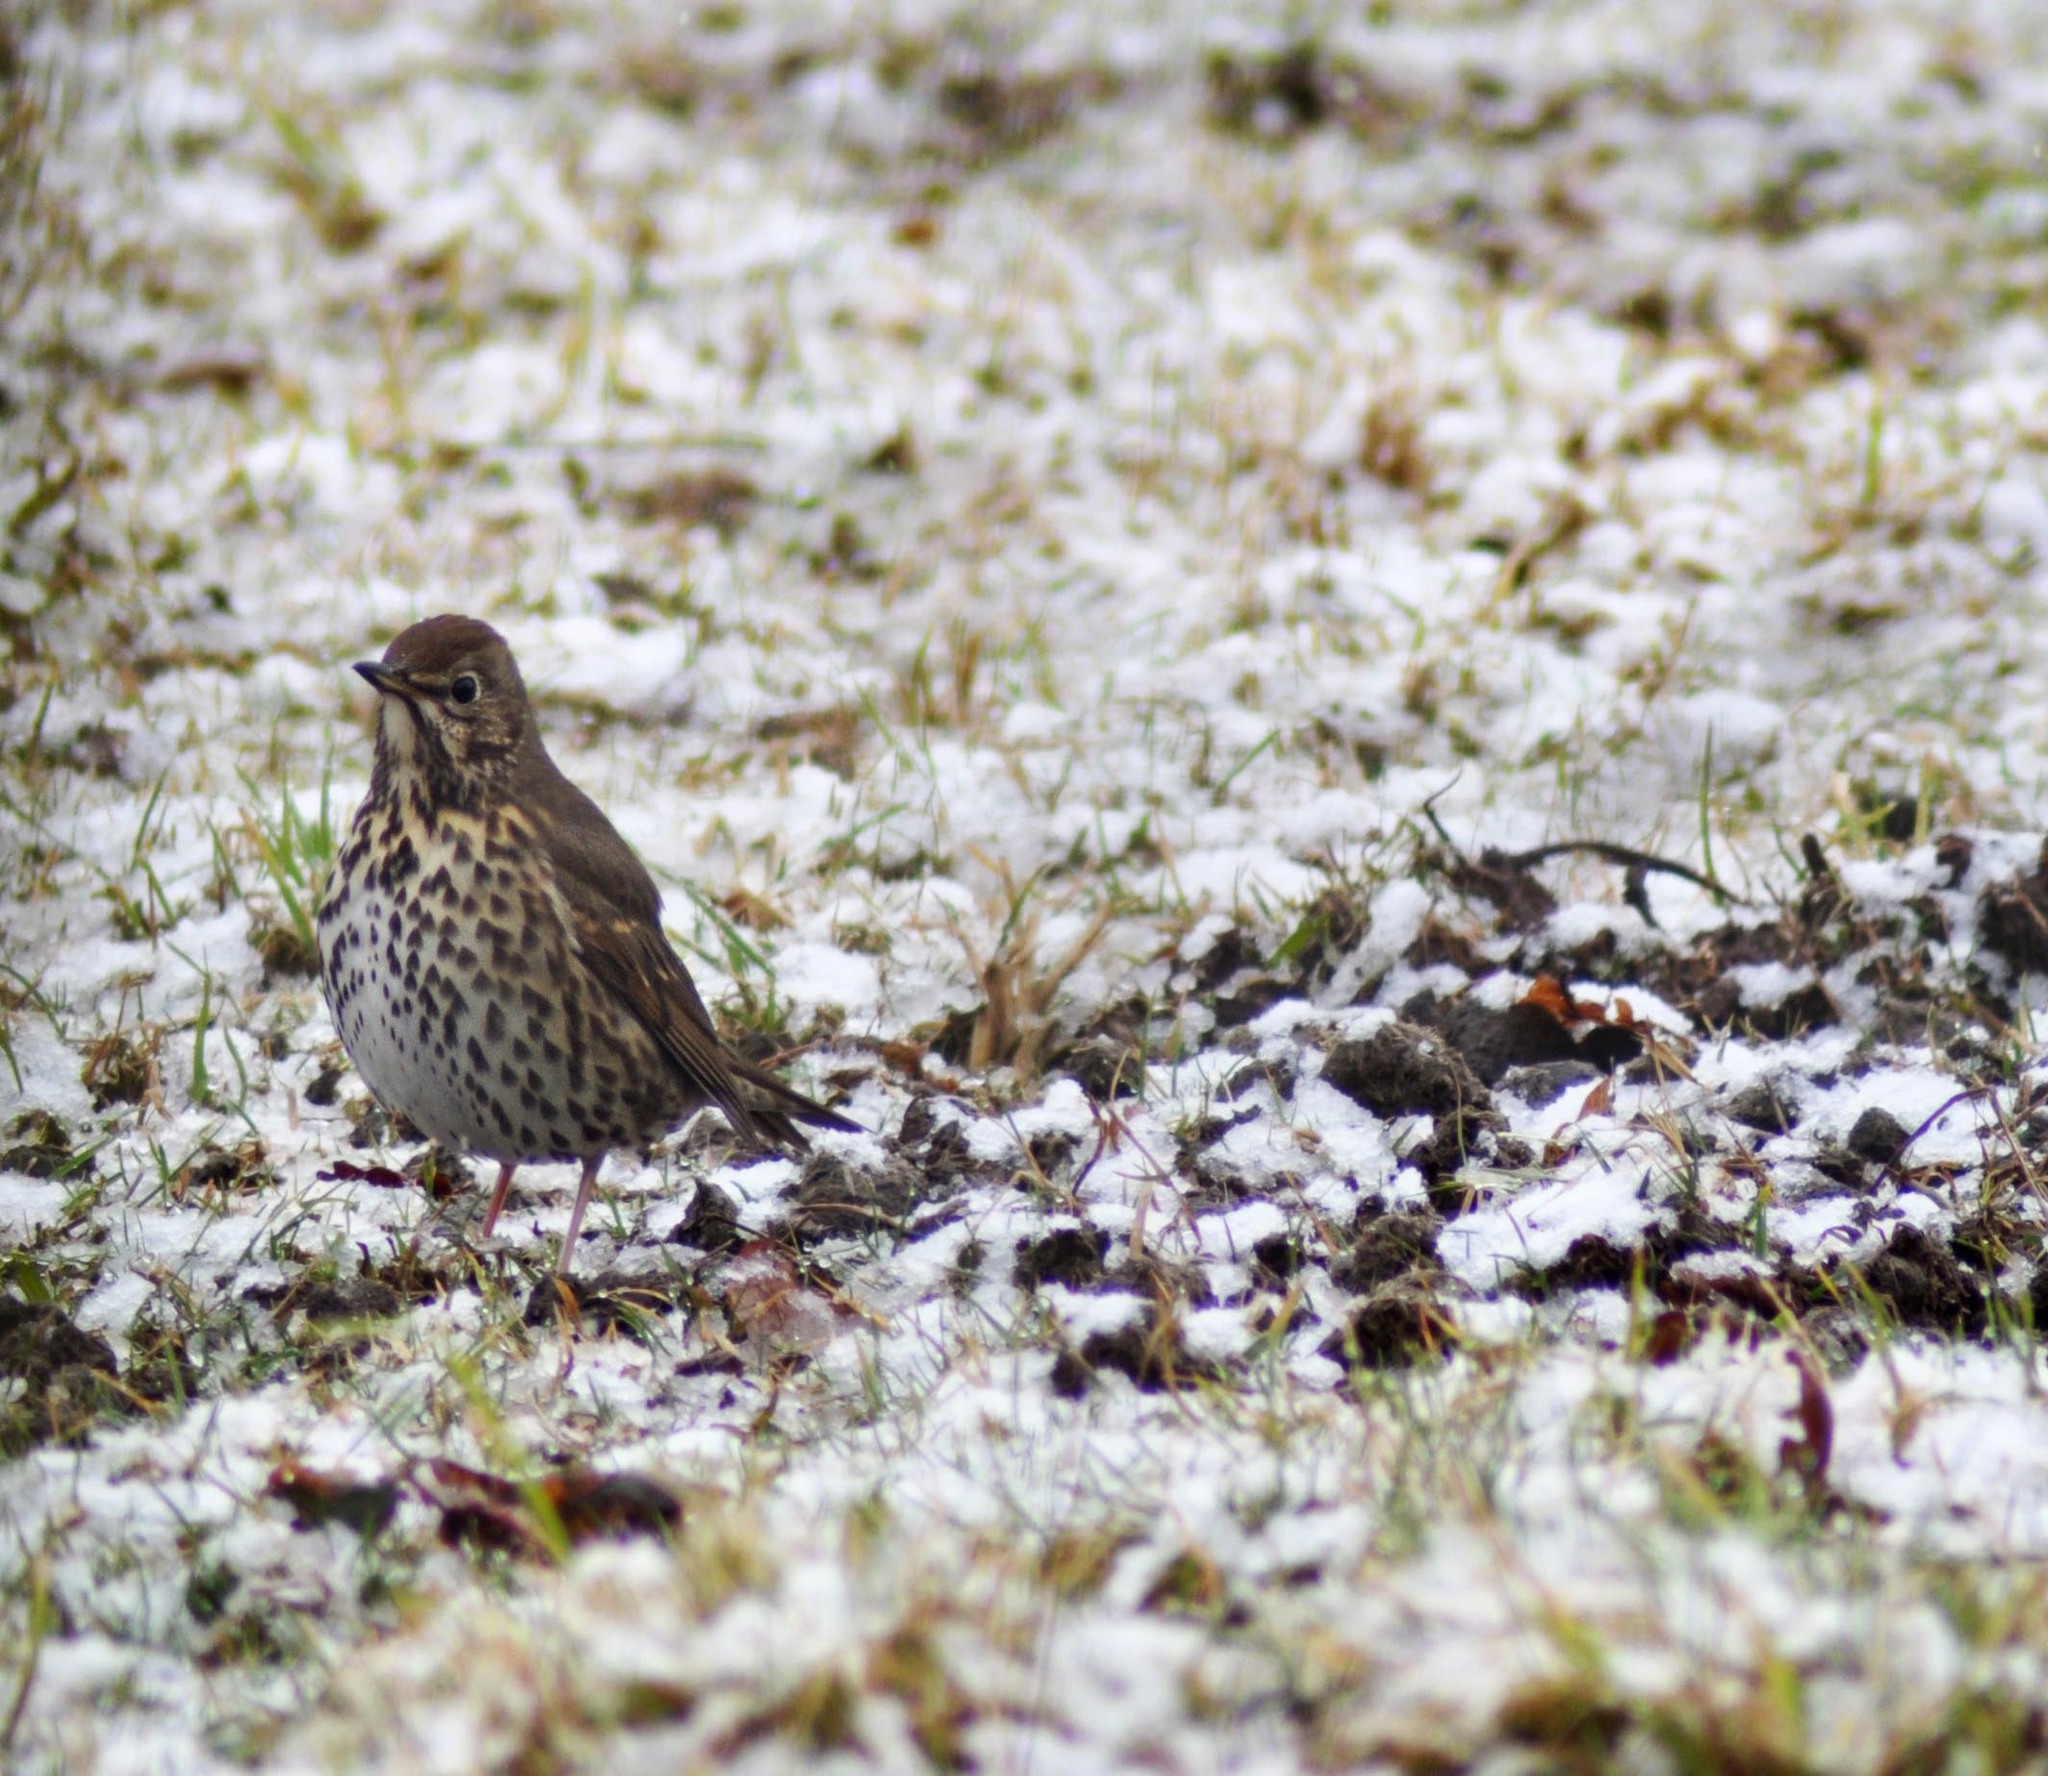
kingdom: Animalia
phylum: Chordata
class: Aves
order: Passeriformes
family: Turdidae
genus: Turdus
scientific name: Turdus philomelos
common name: Song thrush
